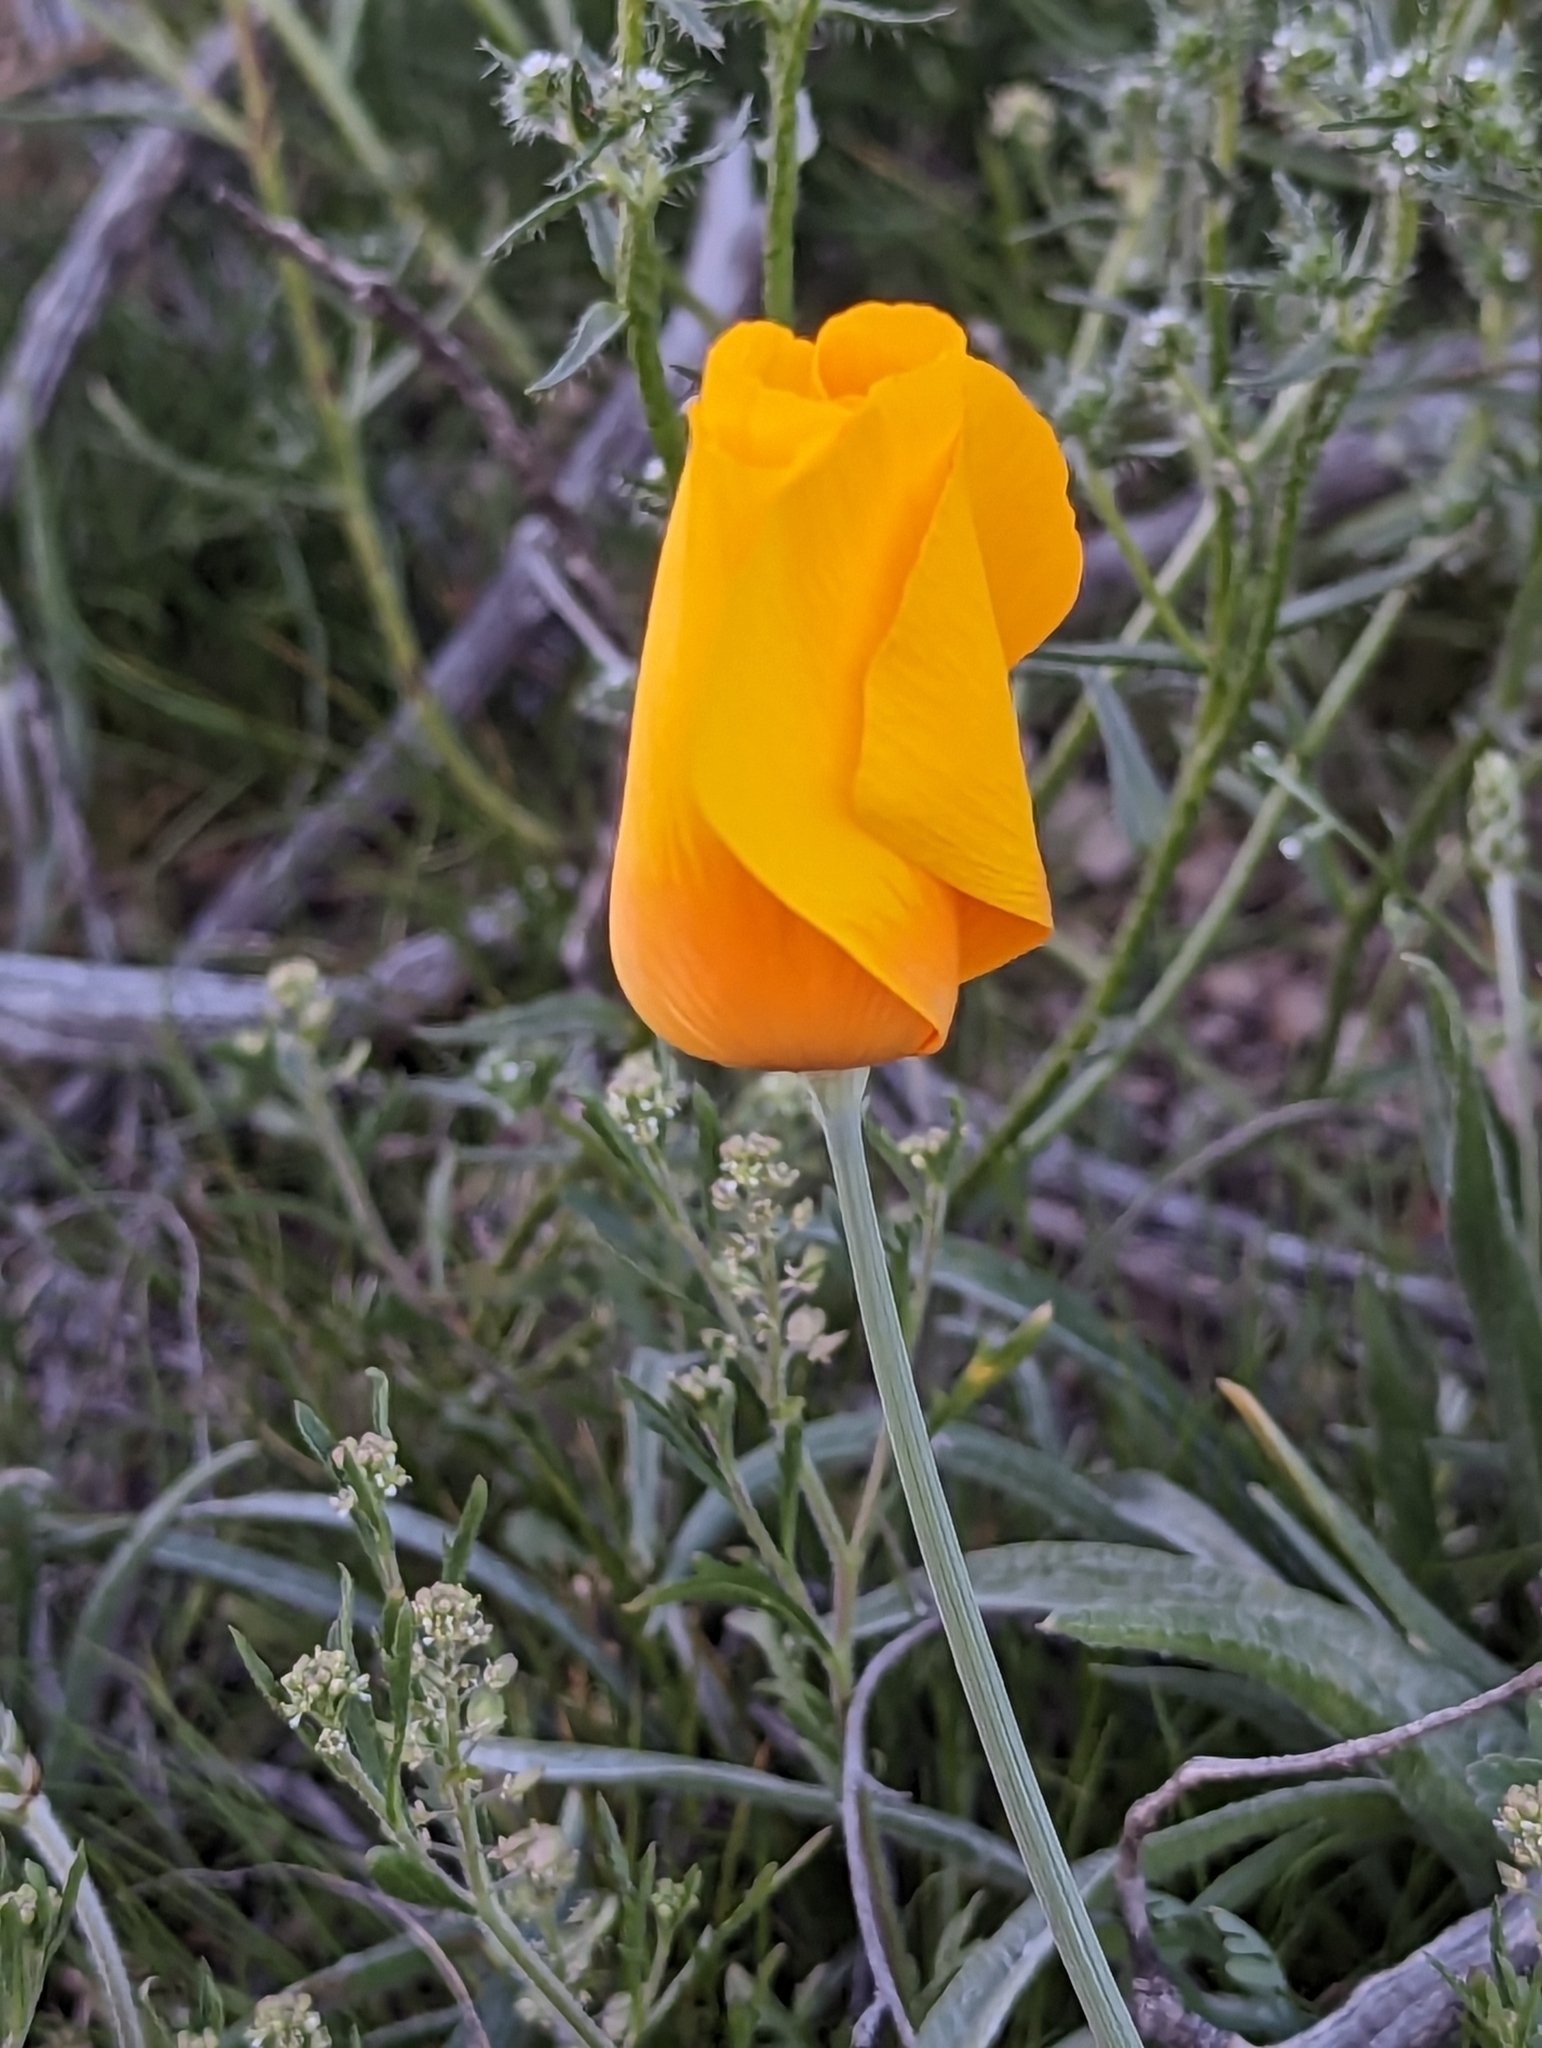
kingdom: Plantae
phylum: Tracheophyta
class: Magnoliopsida
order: Ranunculales
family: Papaveraceae
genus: Eschscholzia
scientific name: Eschscholzia californica
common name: California poppy
